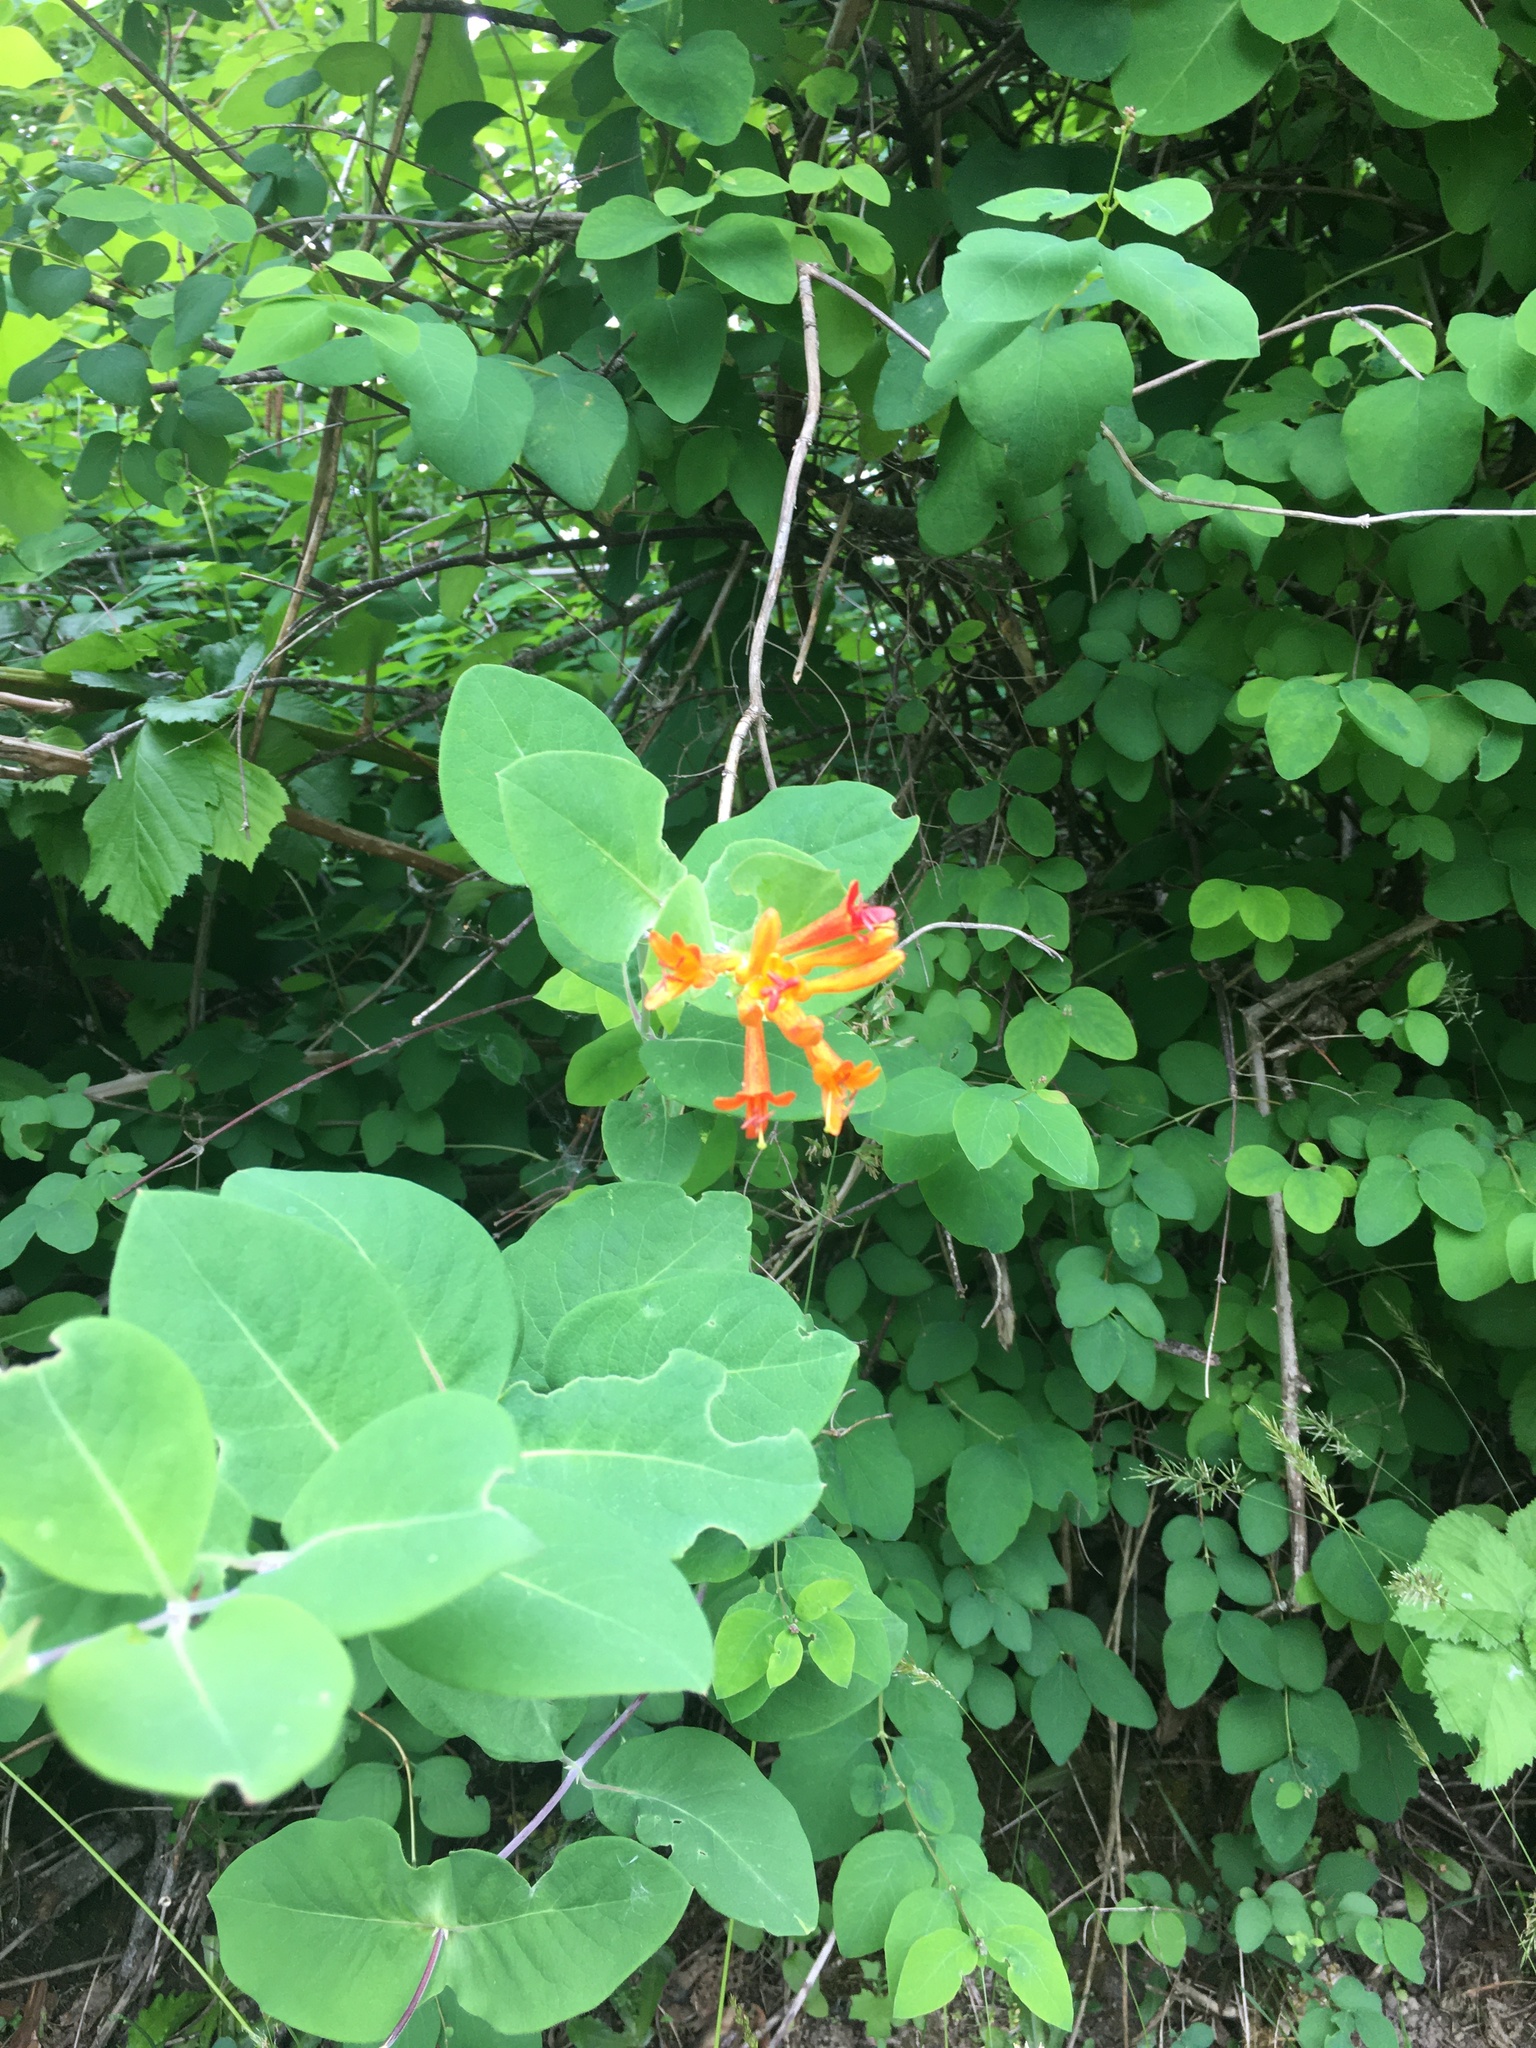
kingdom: Plantae
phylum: Tracheophyta
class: Magnoliopsida
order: Dipsacales
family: Caprifoliaceae
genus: Lonicera
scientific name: Lonicera ciliosa
